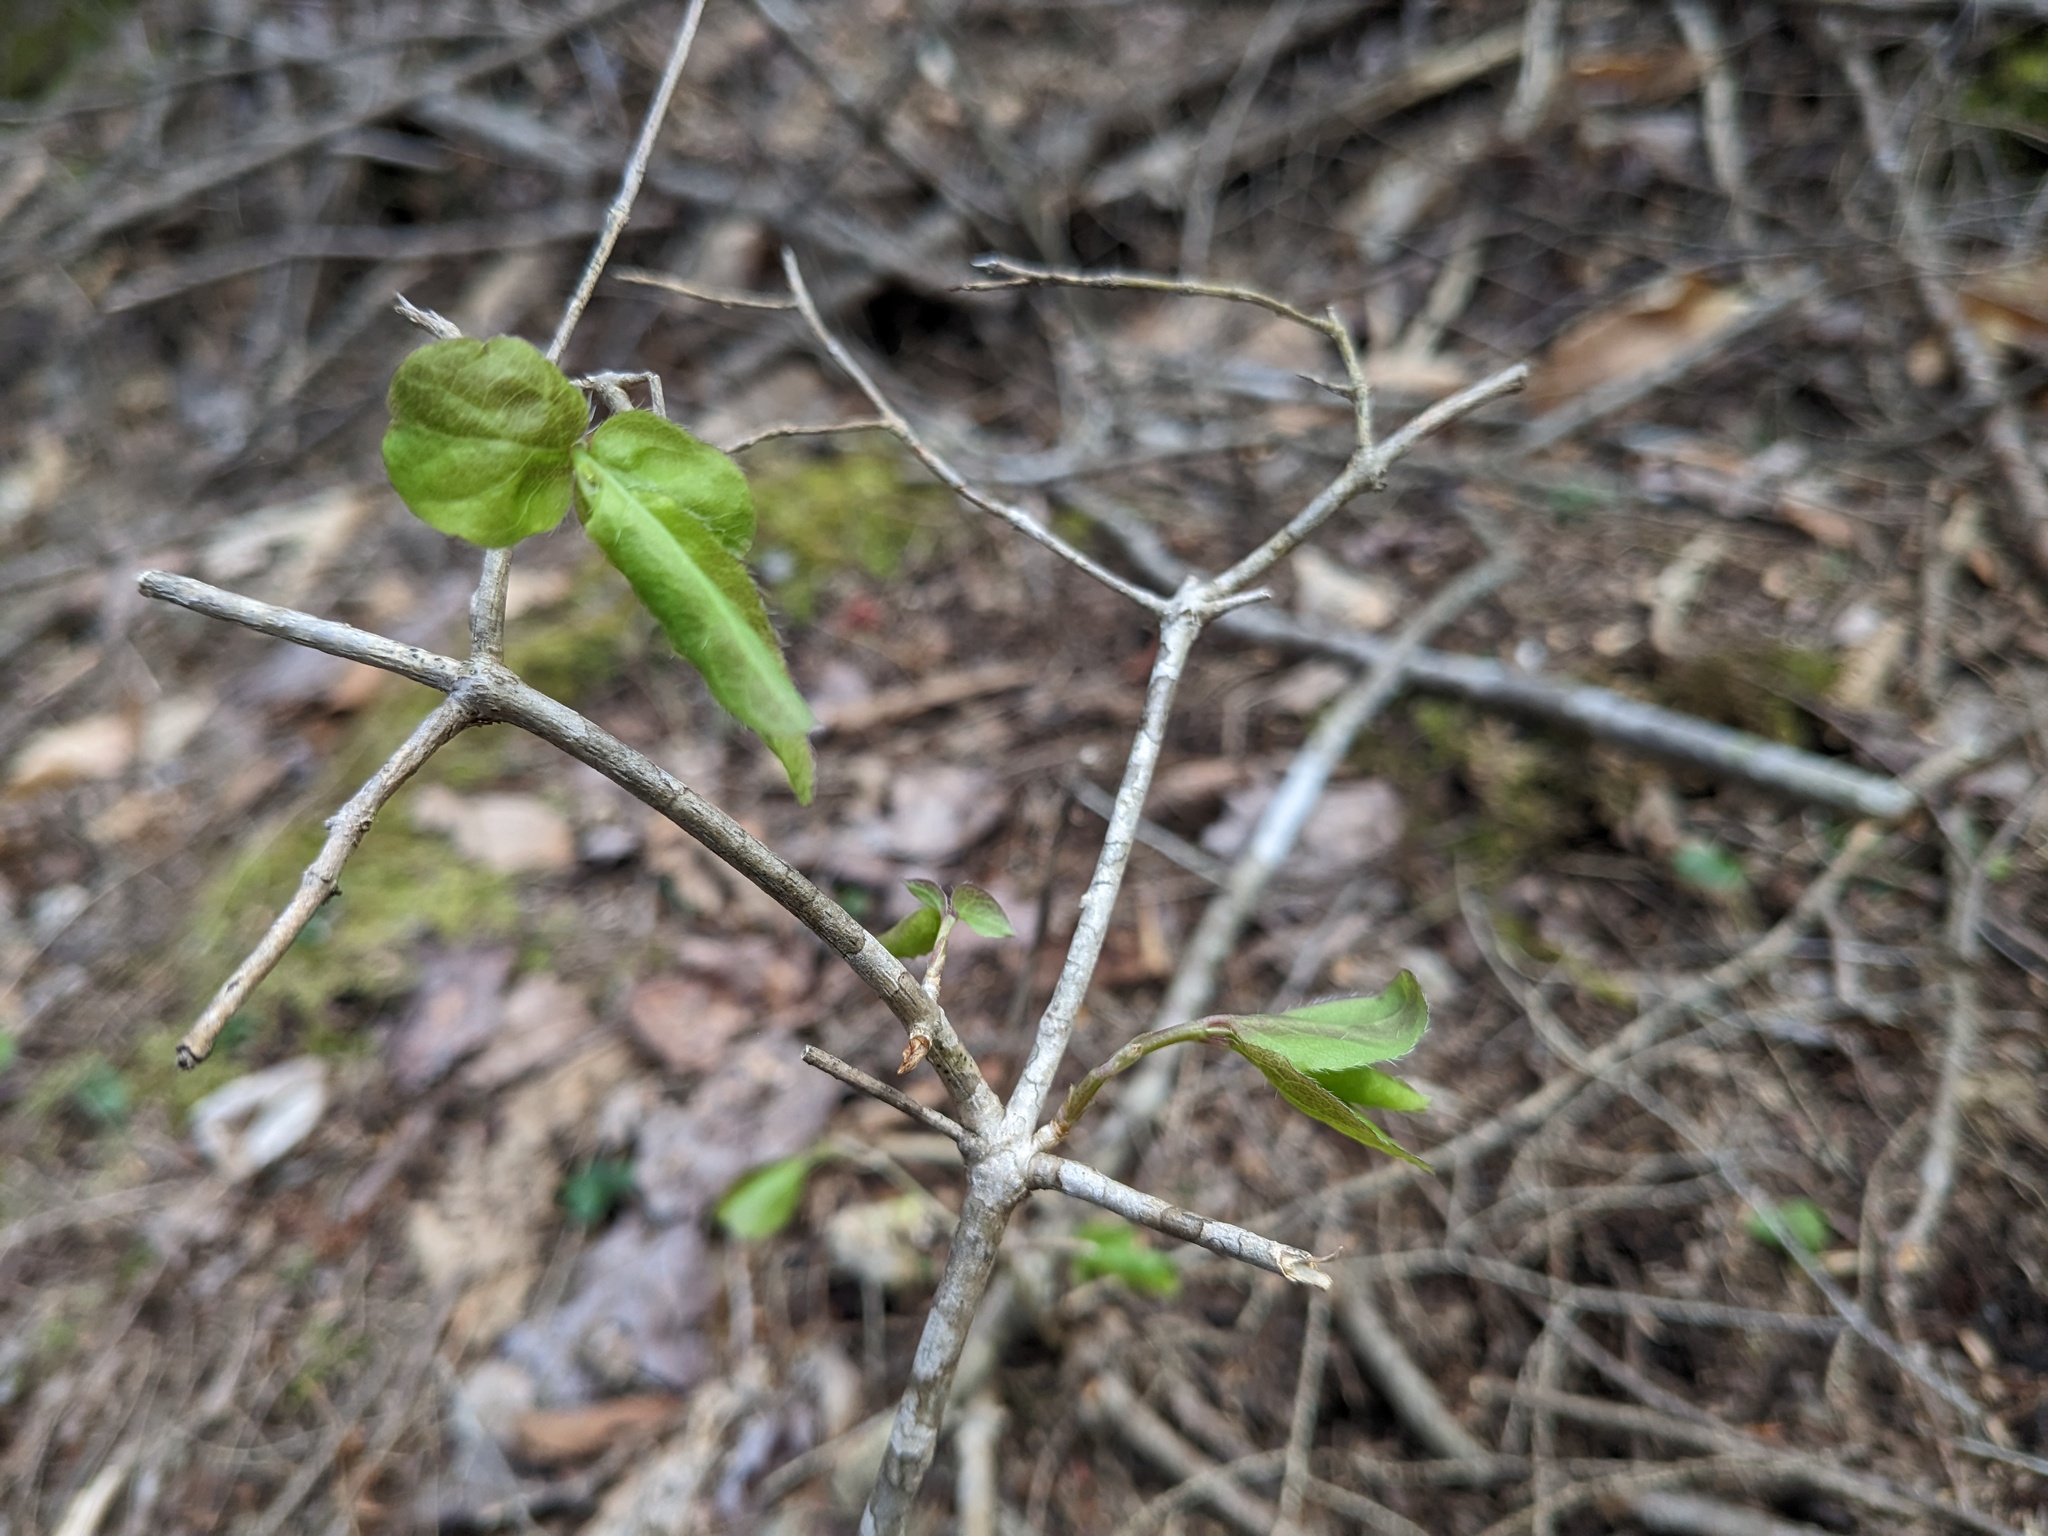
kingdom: Plantae
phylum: Tracheophyta
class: Magnoliopsida
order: Dipsacales
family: Caprifoliaceae
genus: Lonicera
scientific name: Lonicera canadensis
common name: American fly-honeysuckle
